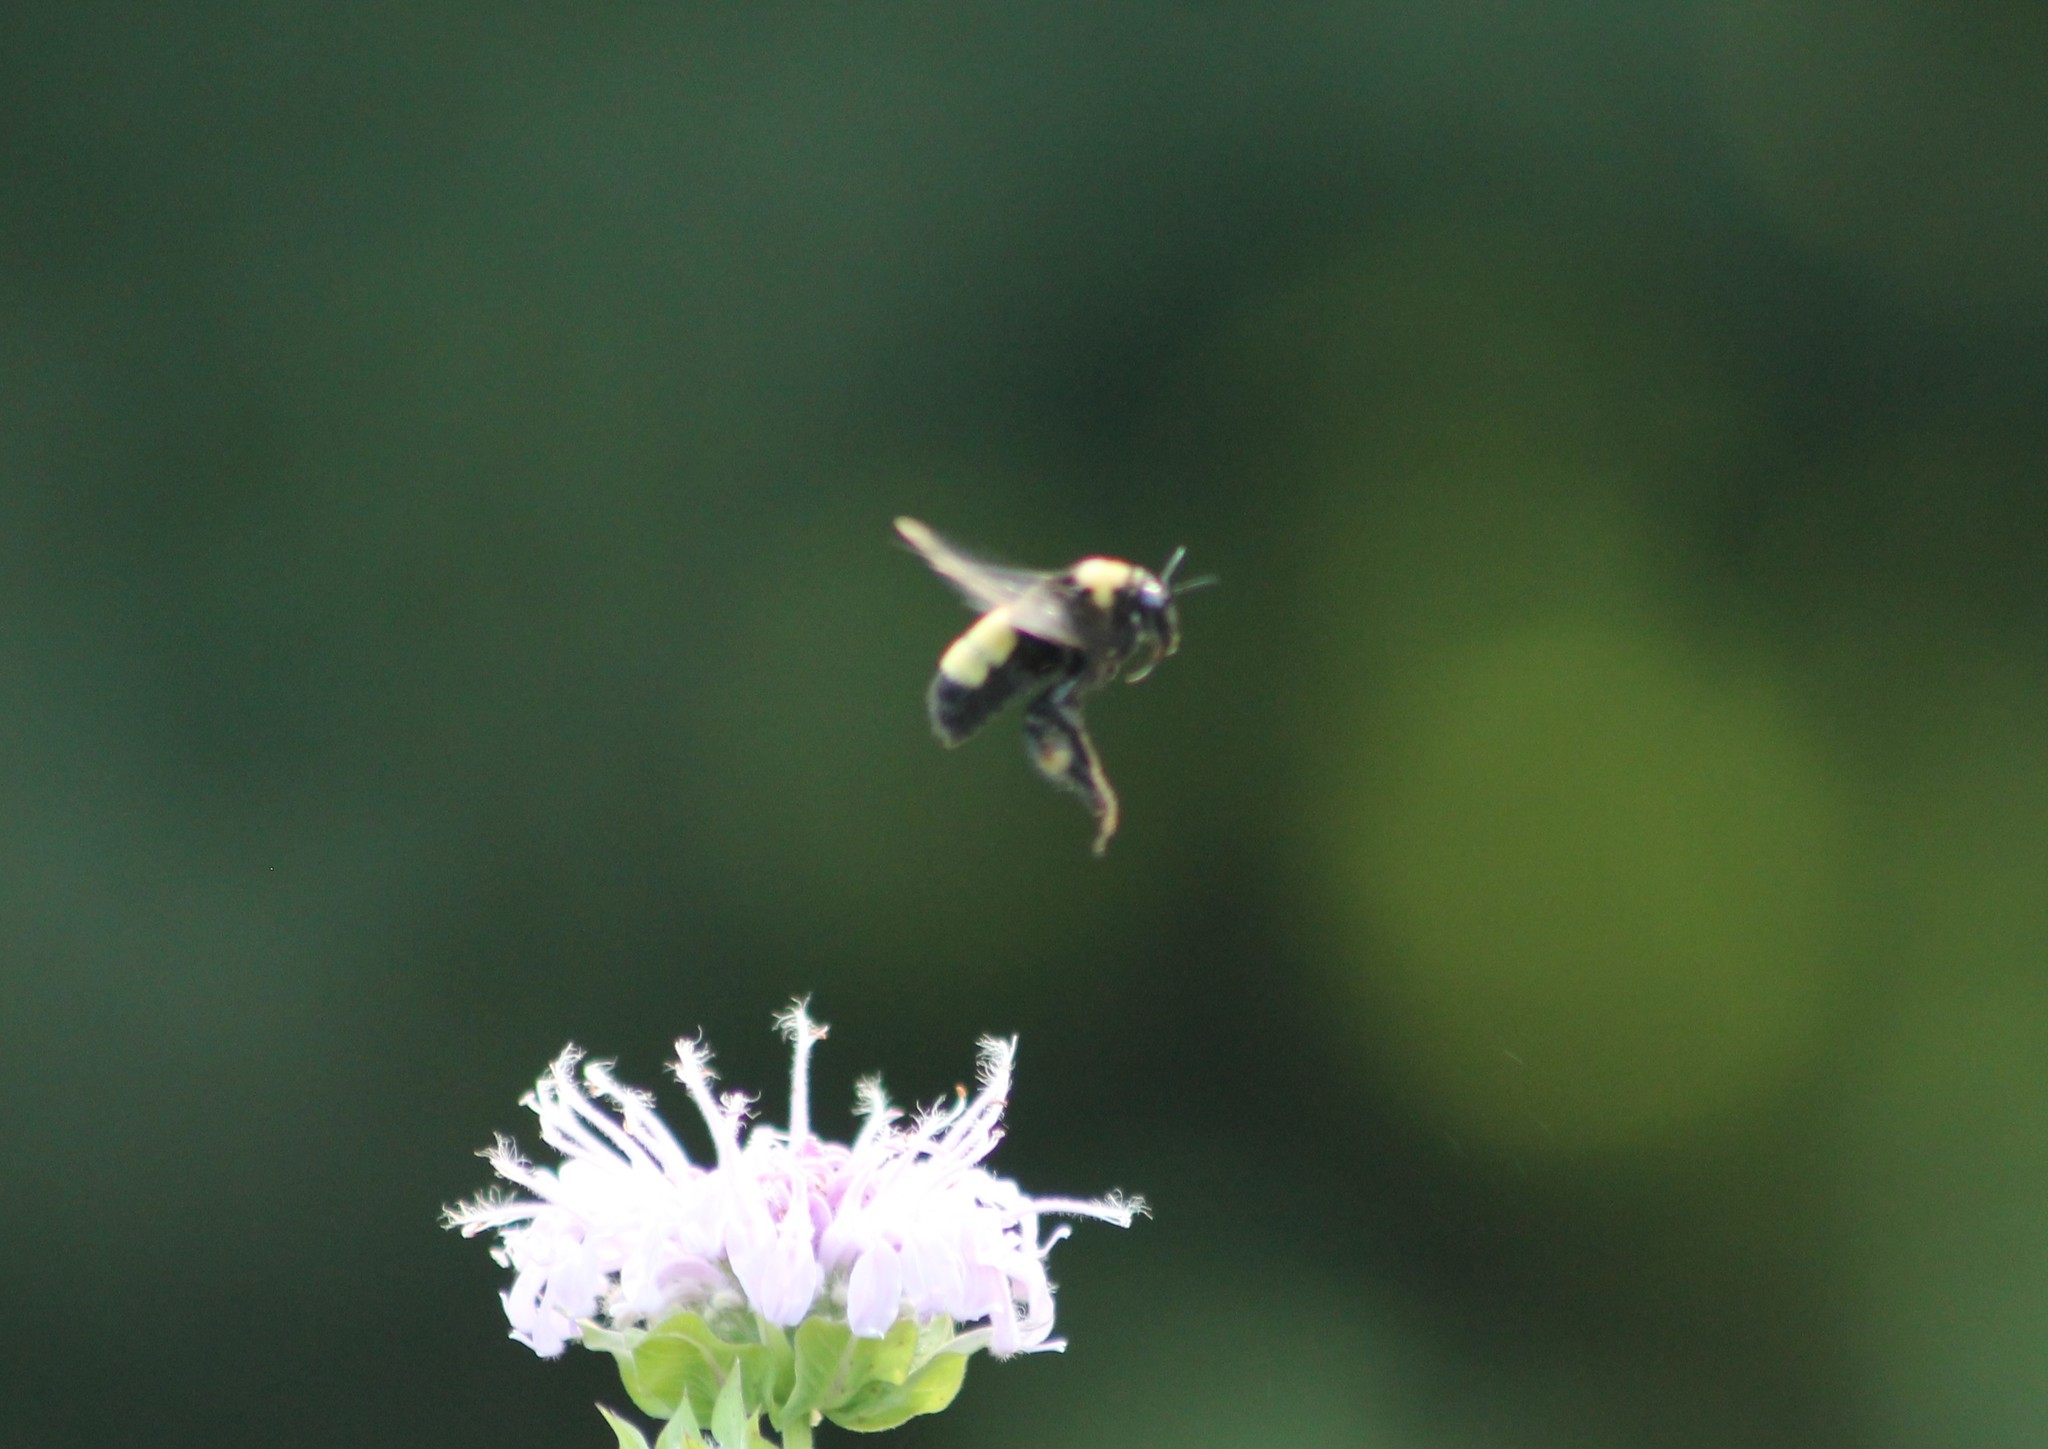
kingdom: Animalia
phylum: Arthropoda
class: Insecta
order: Hymenoptera
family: Apidae
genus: Bombus
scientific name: Bombus auricomus
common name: Black and gold bumble bee
